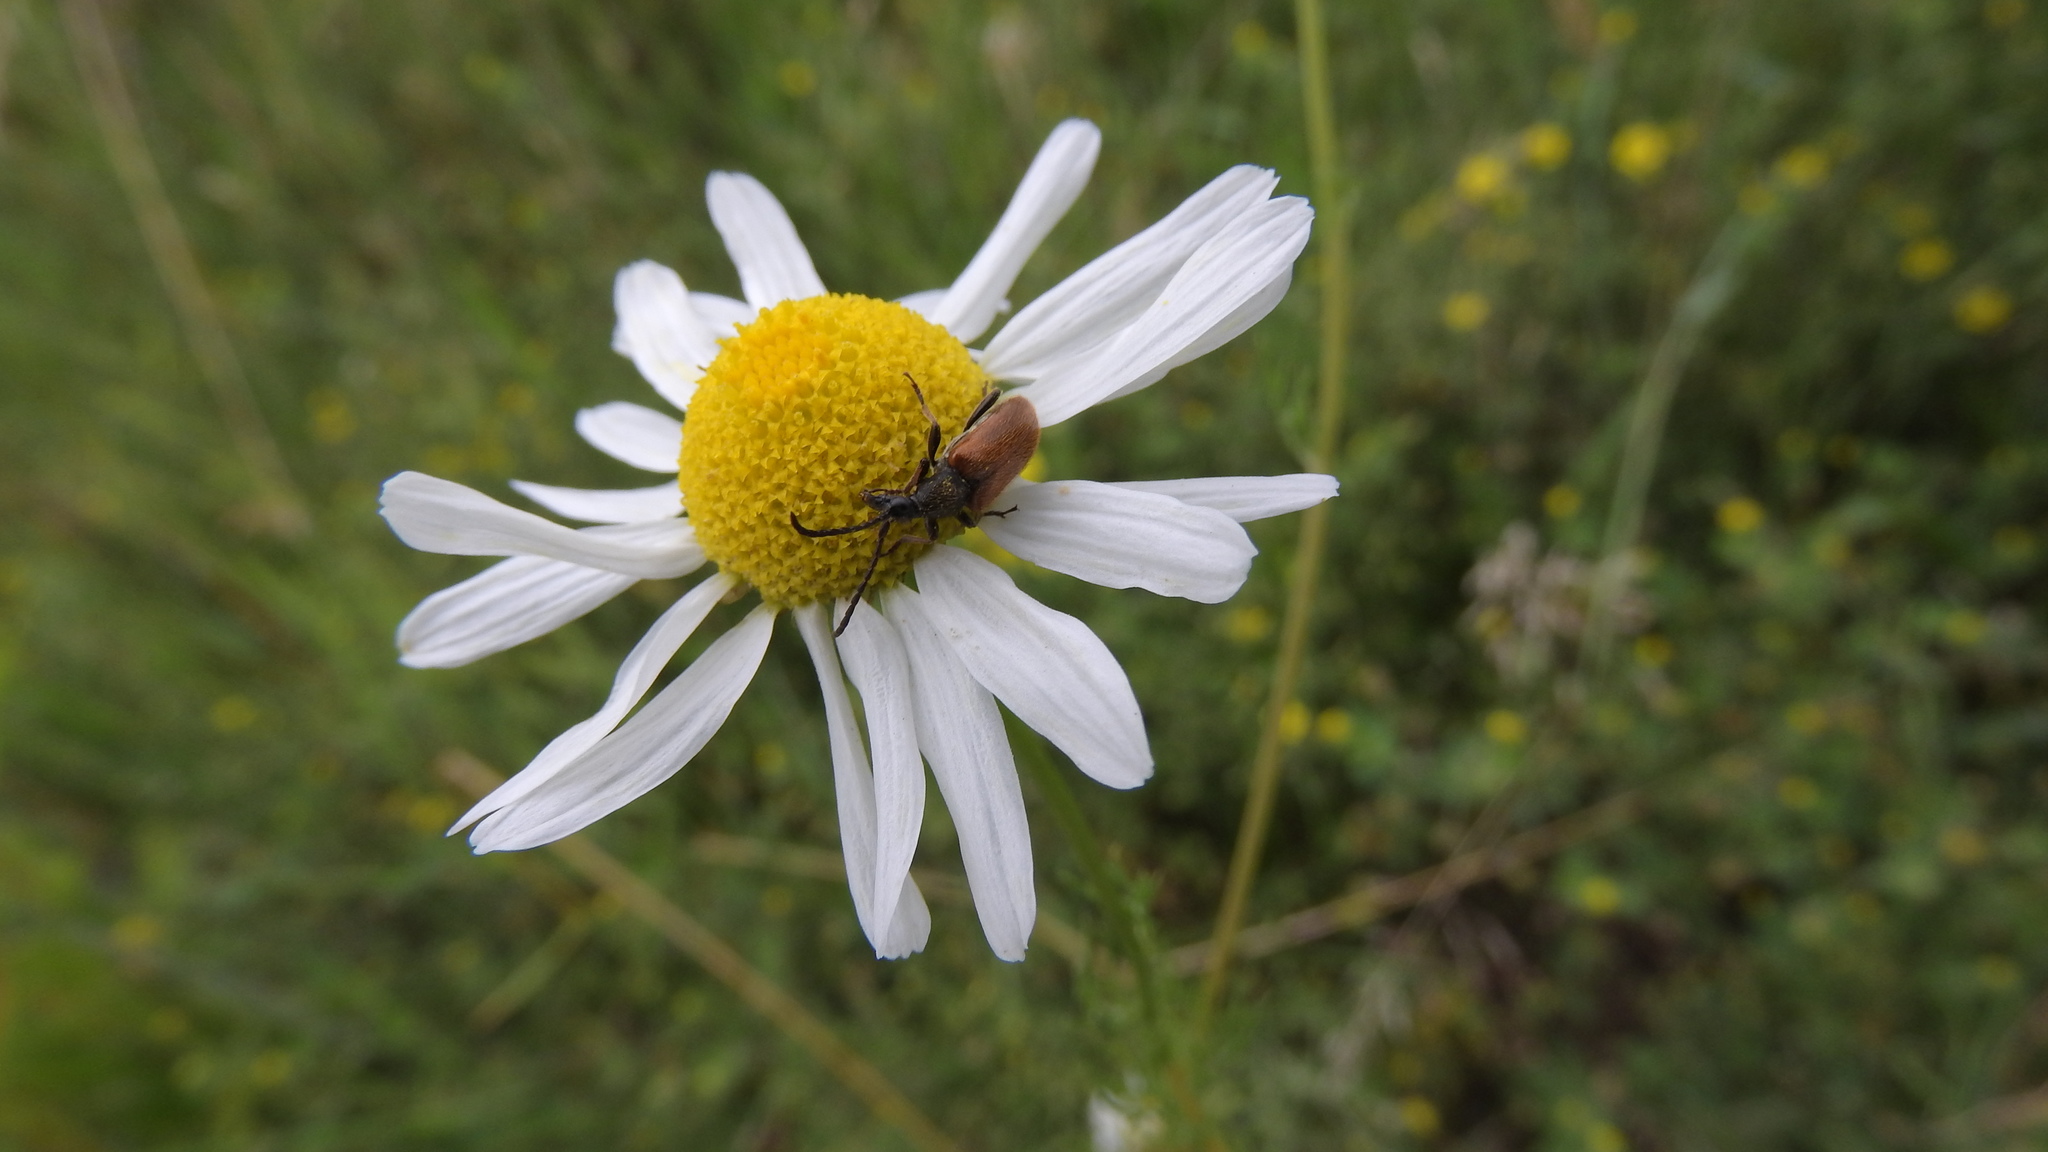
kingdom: Animalia
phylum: Arthropoda
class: Insecta
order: Coleoptera
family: Cerambycidae
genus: Pseudovadonia
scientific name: Pseudovadonia livida
